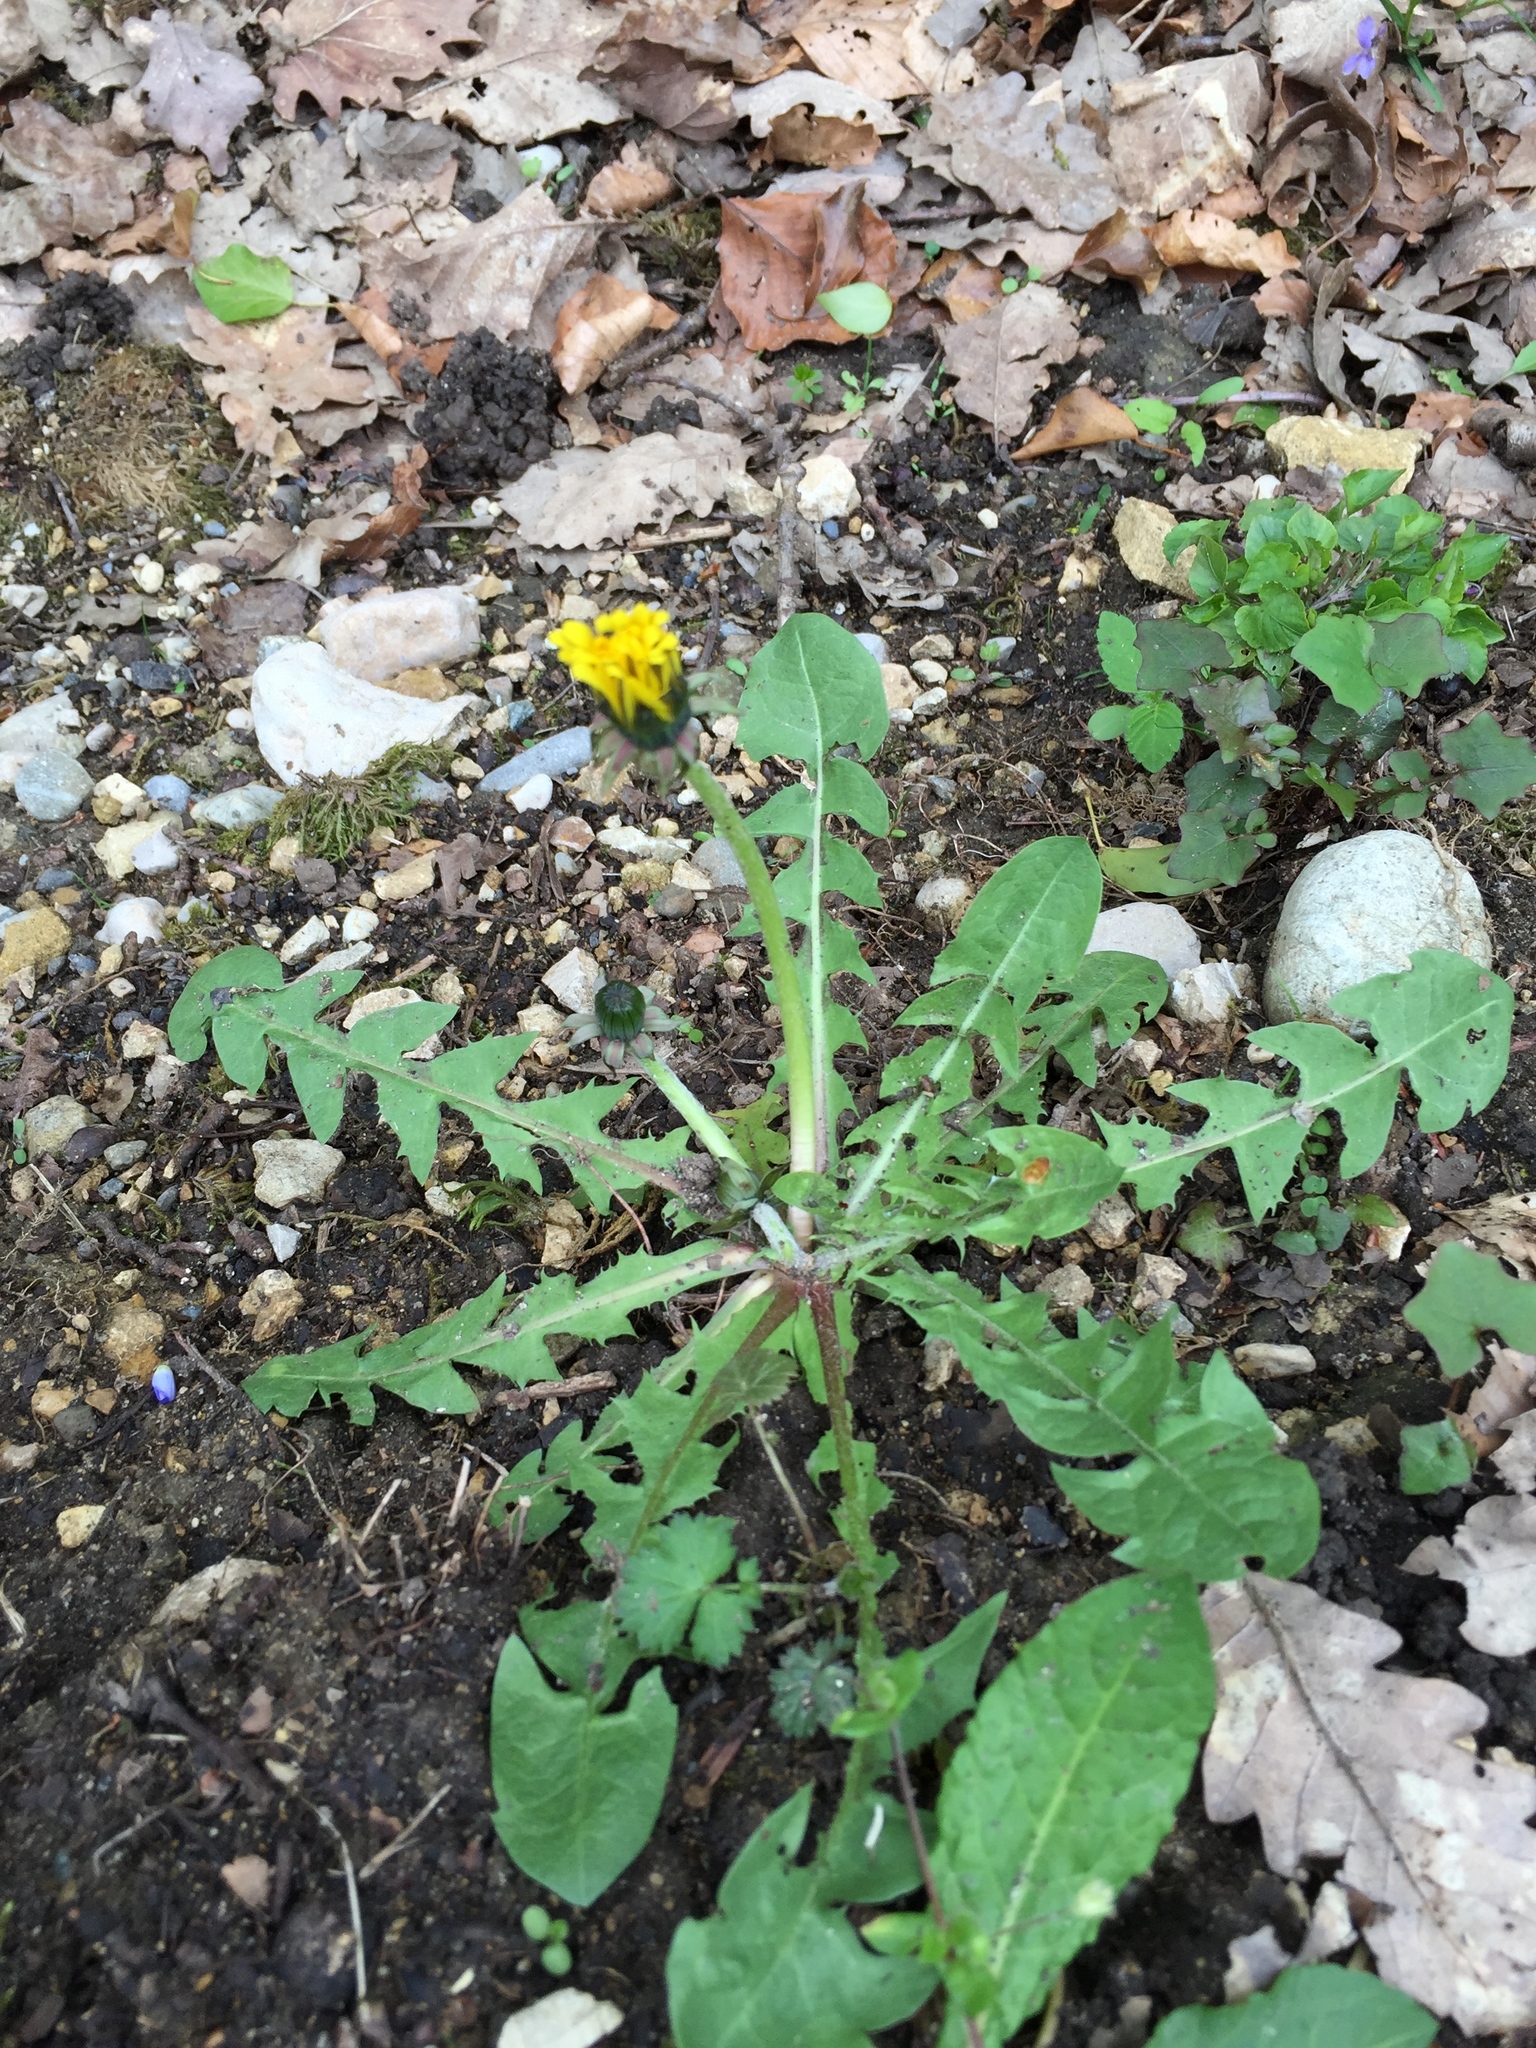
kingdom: Plantae
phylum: Tracheophyta
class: Magnoliopsida
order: Asterales
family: Asteraceae
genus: Taraxacum
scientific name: Taraxacum officinale
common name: Common dandelion
